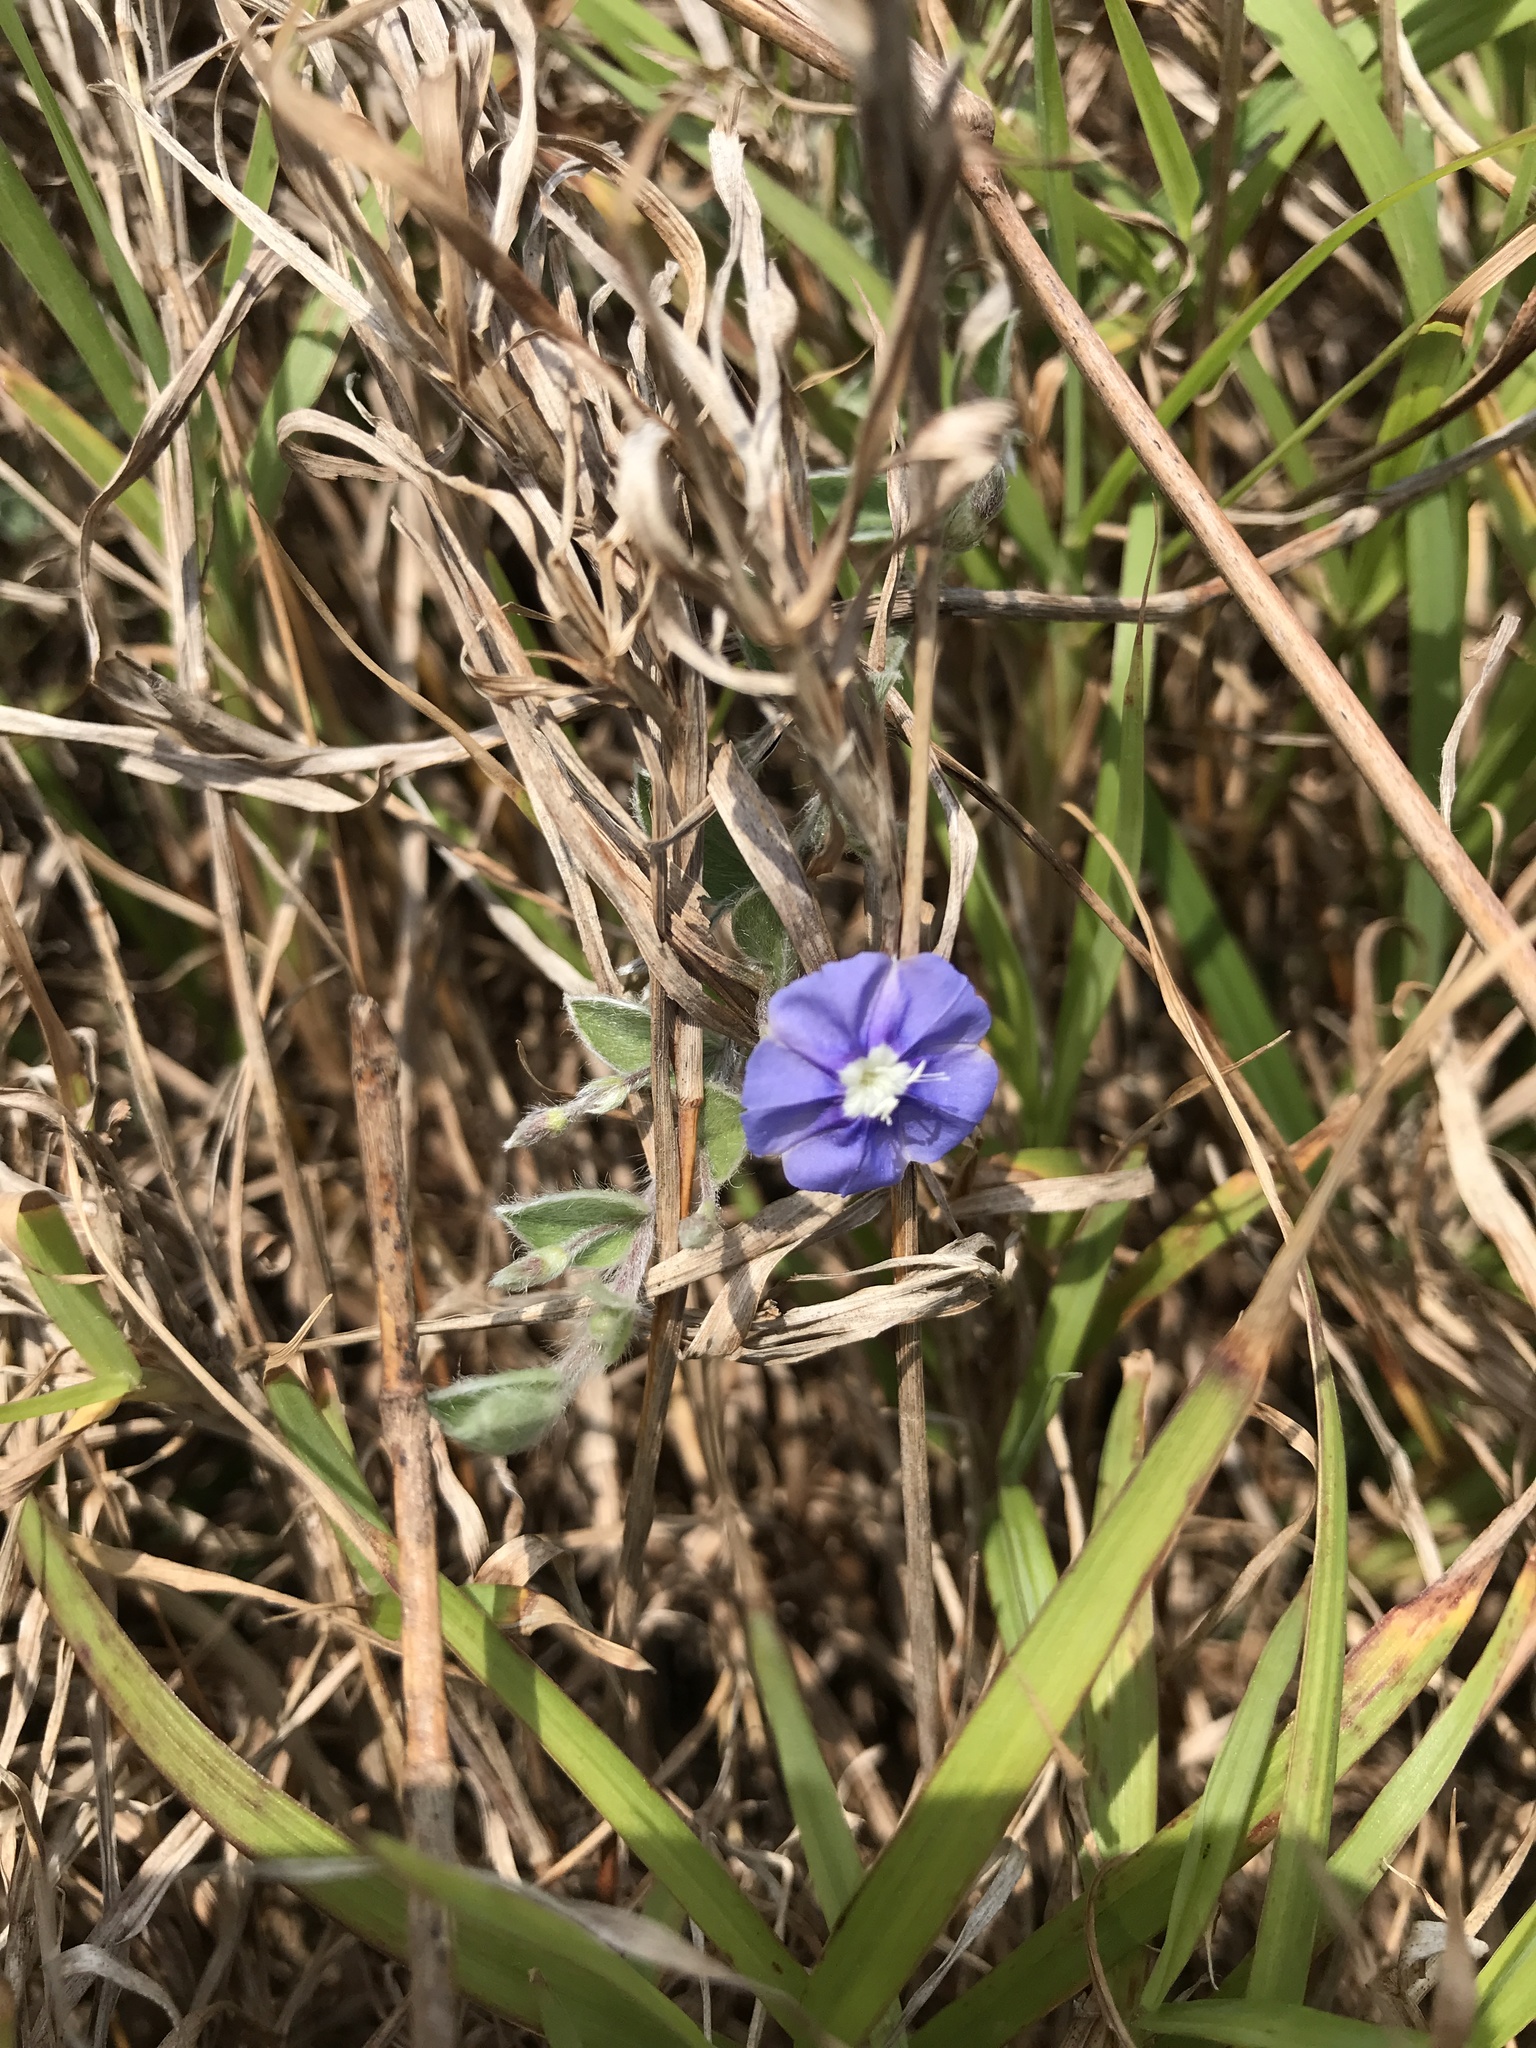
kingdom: Plantae
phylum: Tracheophyta
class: Magnoliopsida
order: Solanales
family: Convolvulaceae
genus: Evolvulus
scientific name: Evolvulus alsinoides
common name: Slender dwarf morning-glory
